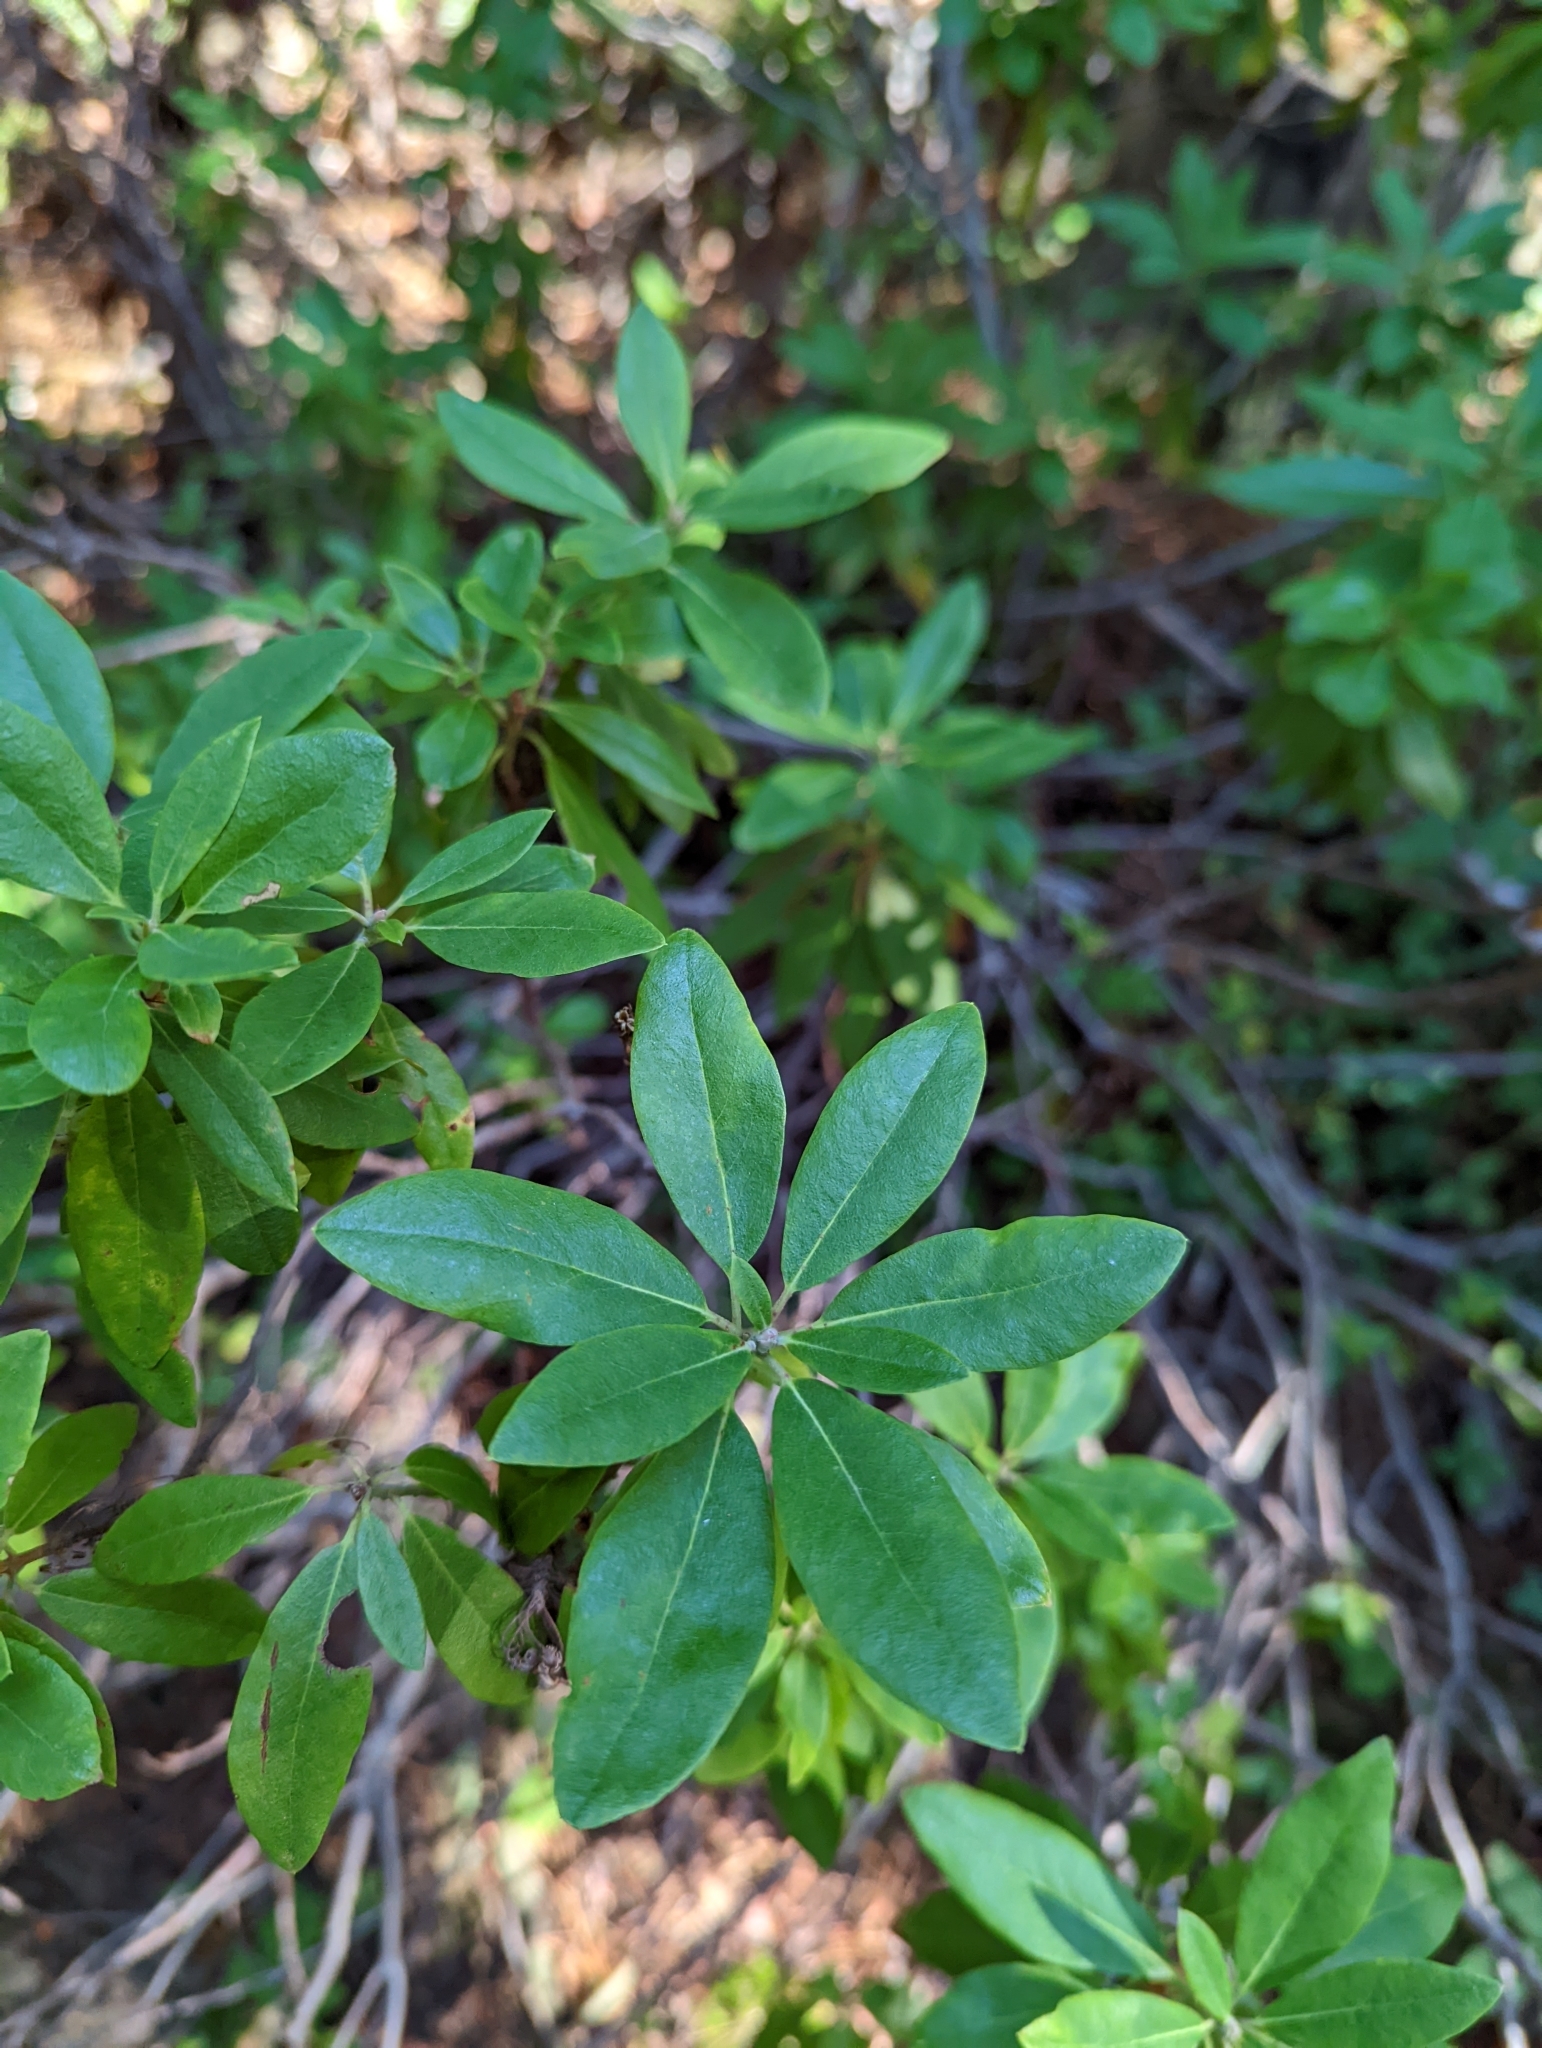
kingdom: Plantae
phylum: Tracheophyta
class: Magnoliopsida
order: Ericales
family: Ericaceae
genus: Rhododendron
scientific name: Rhododendron columbianum
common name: Western labrador tea
